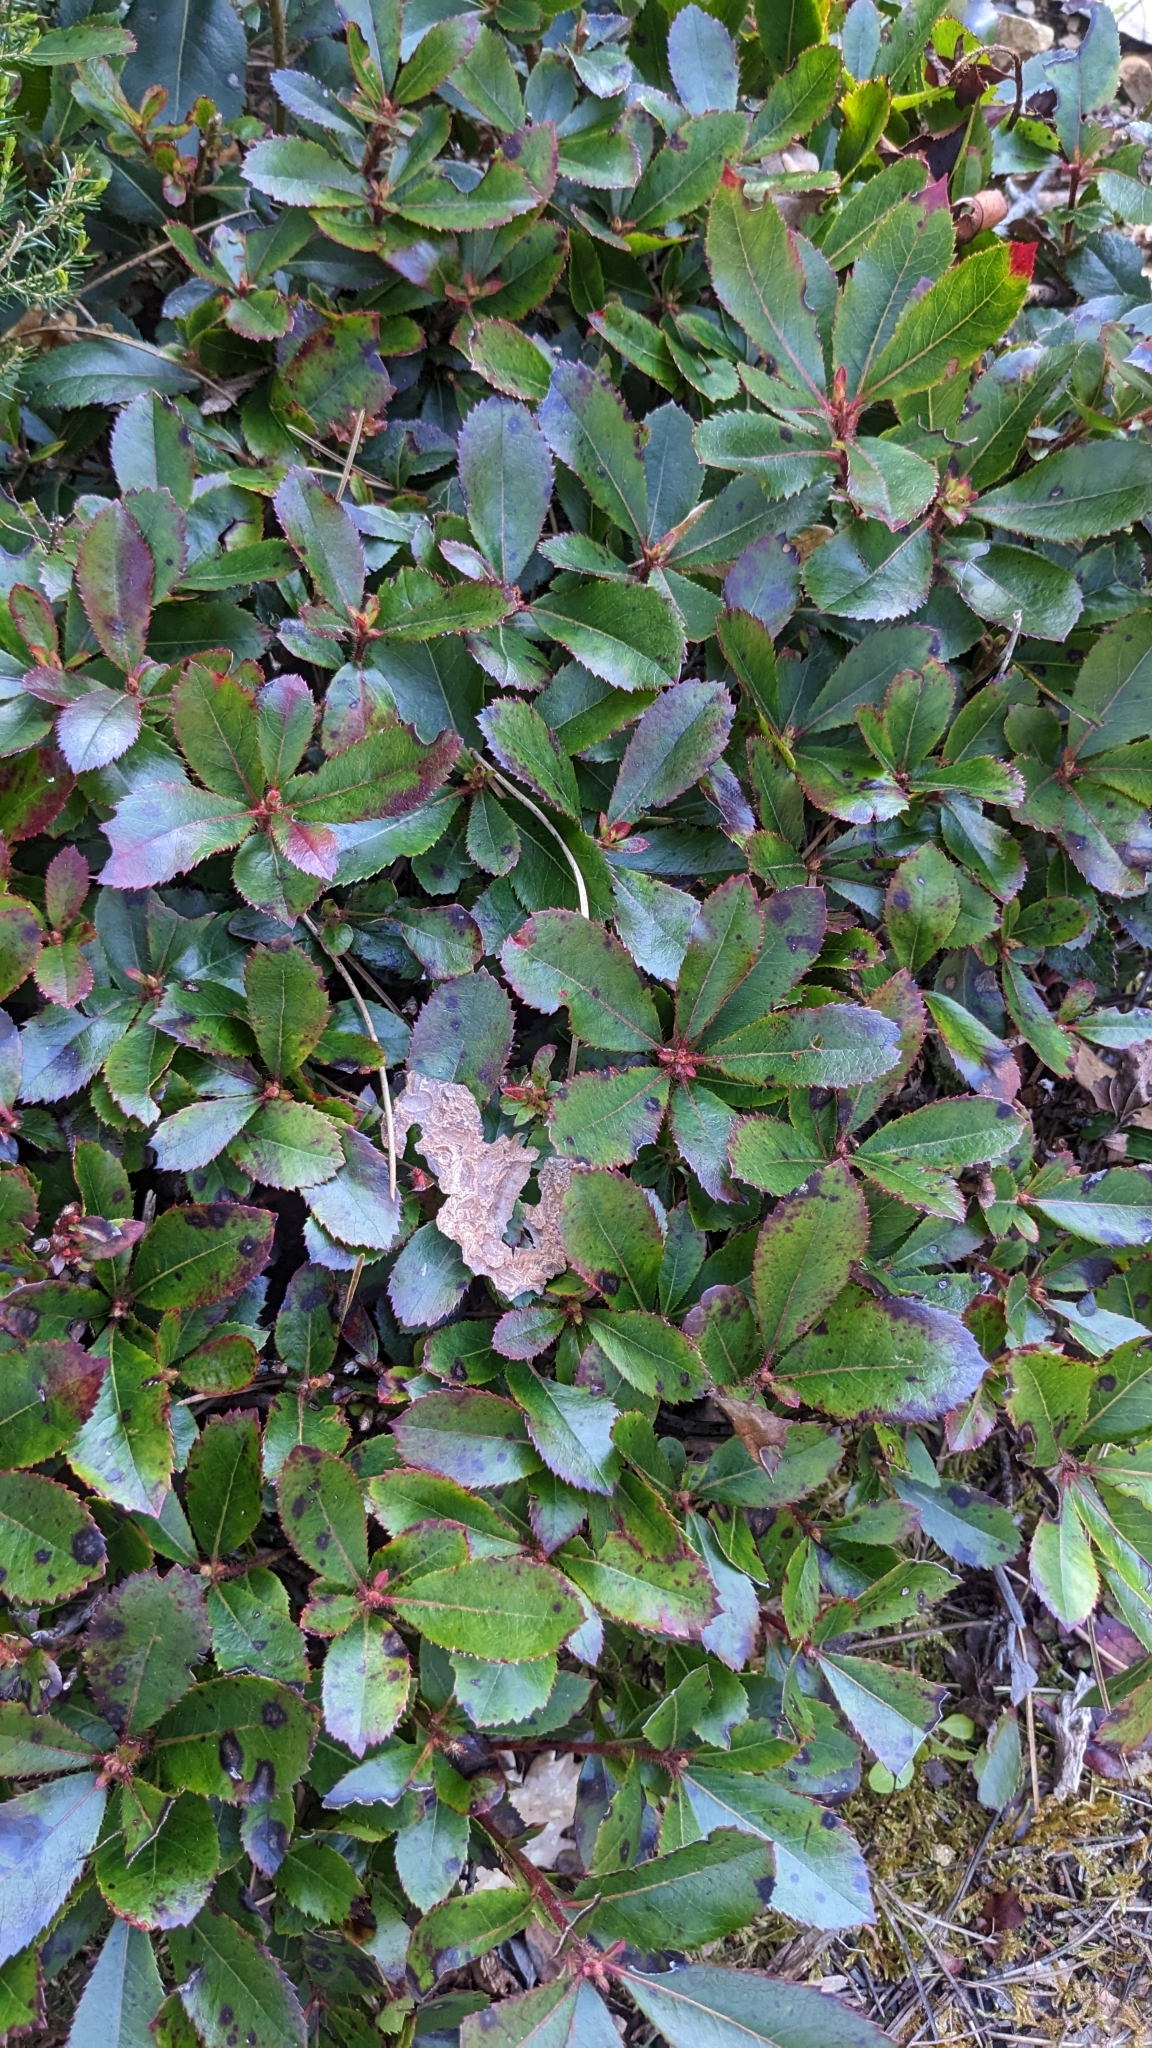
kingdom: Plantae
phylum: Tracheophyta
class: Magnoliopsida
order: Ericales
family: Ericaceae
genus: Arbutus
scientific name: Arbutus unedo
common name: Strawberry-tree
